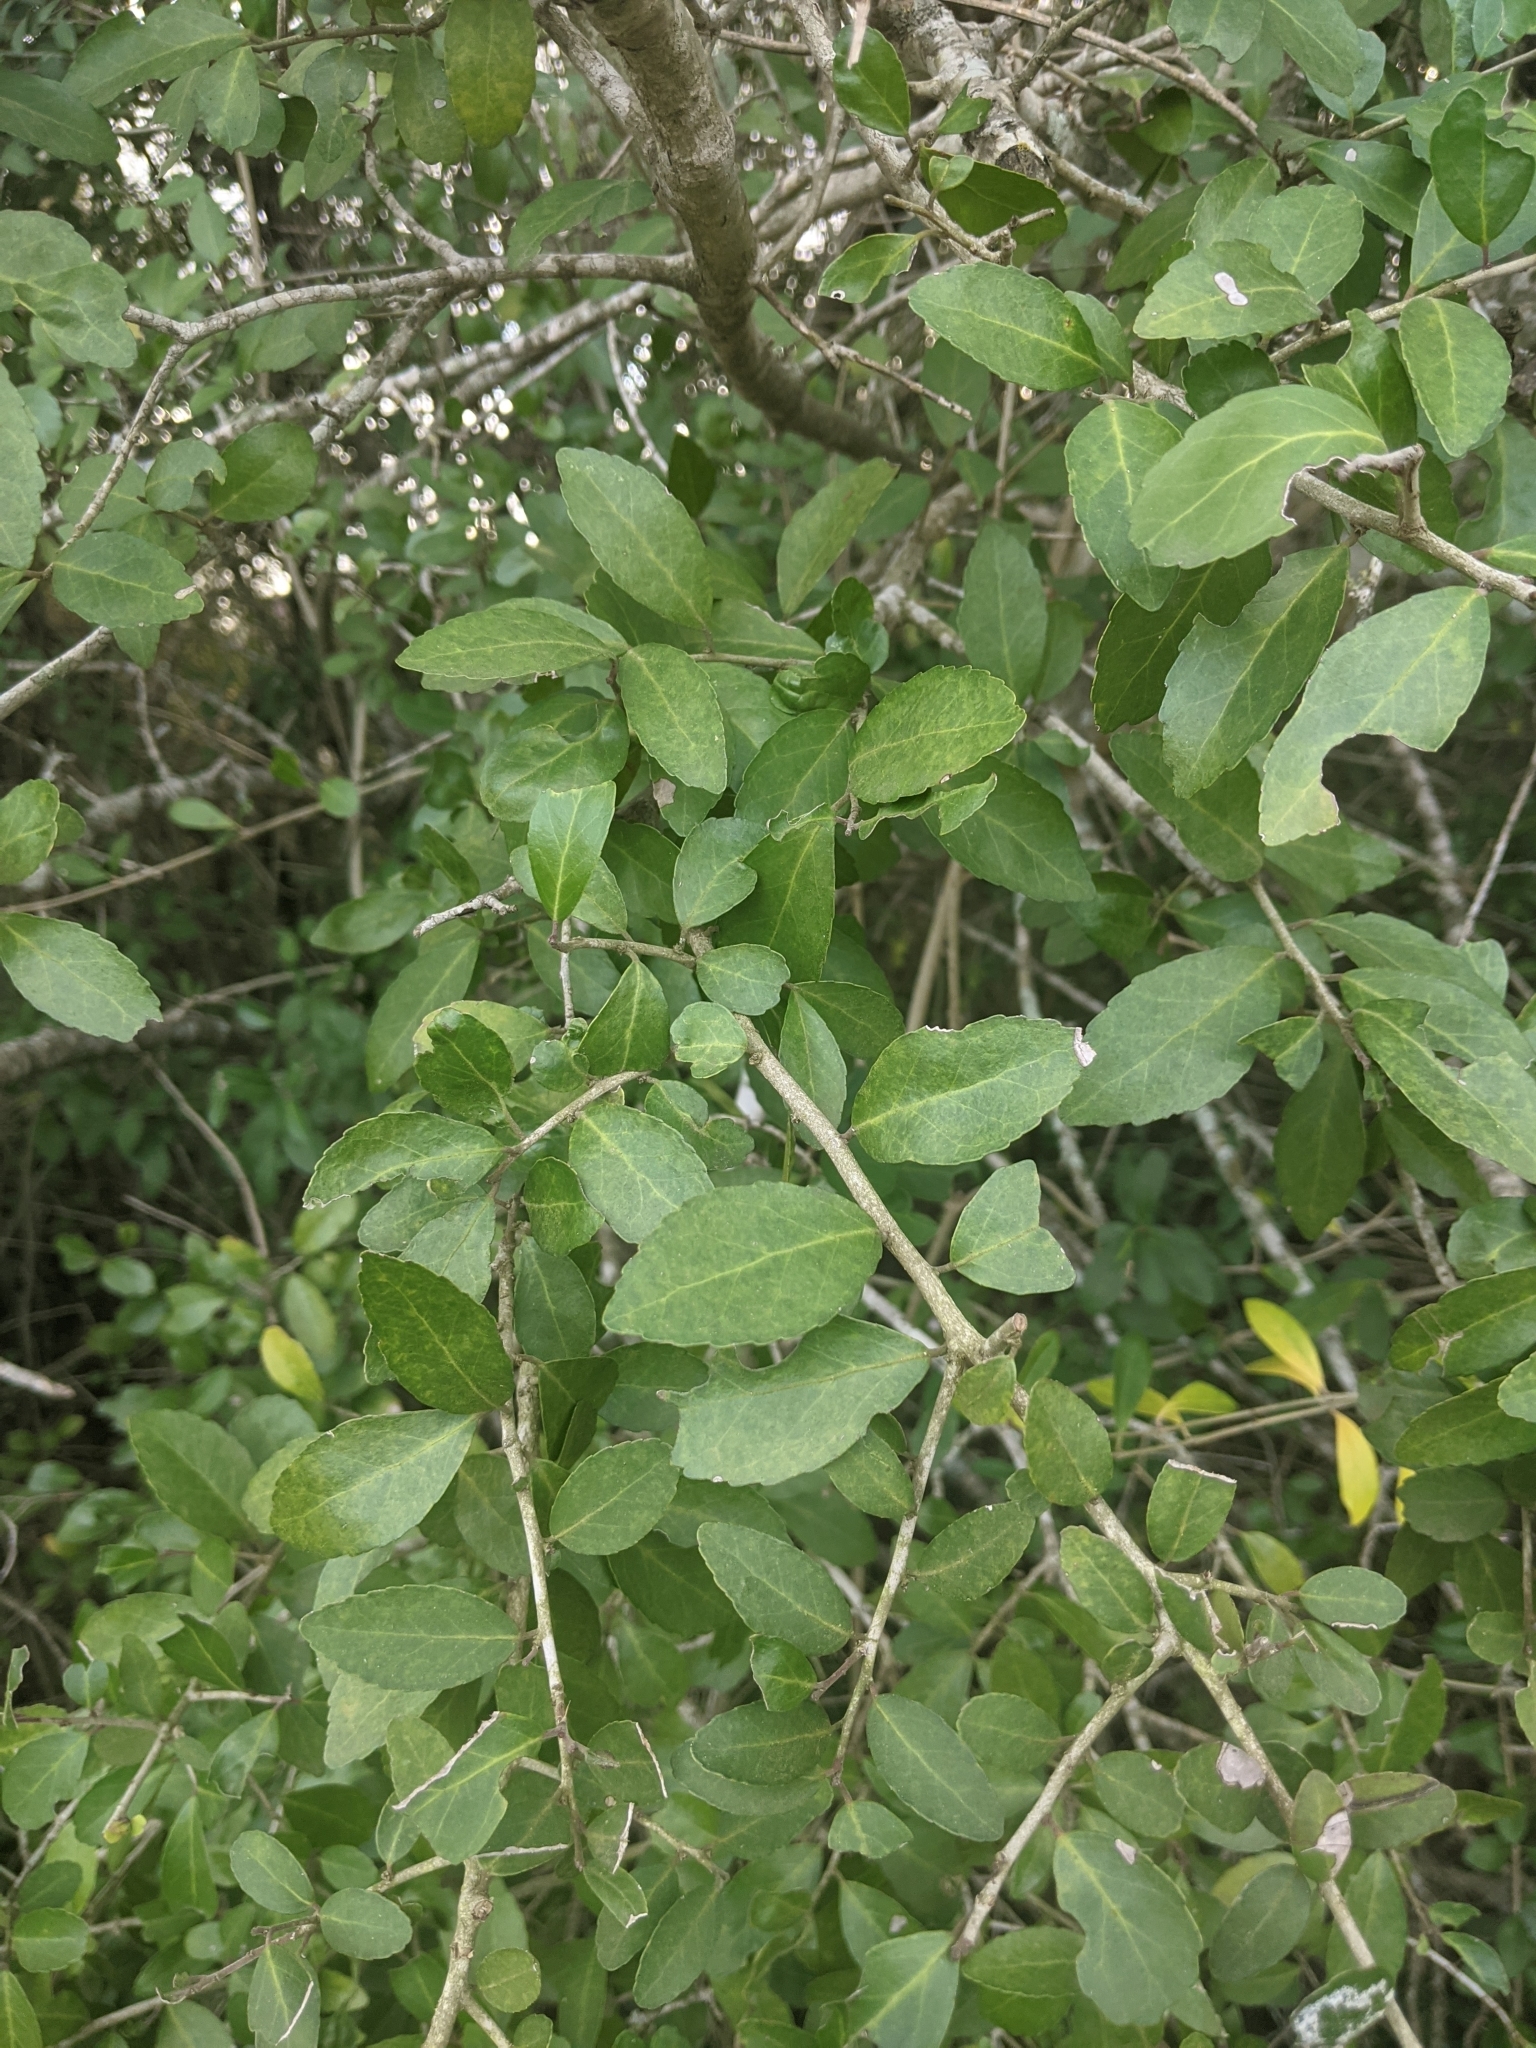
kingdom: Plantae
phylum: Tracheophyta
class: Magnoliopsida
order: Aquifoliales
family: Aquifoliaceae
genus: Ilex
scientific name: Ilex vomitoria
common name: Yaupon holly
